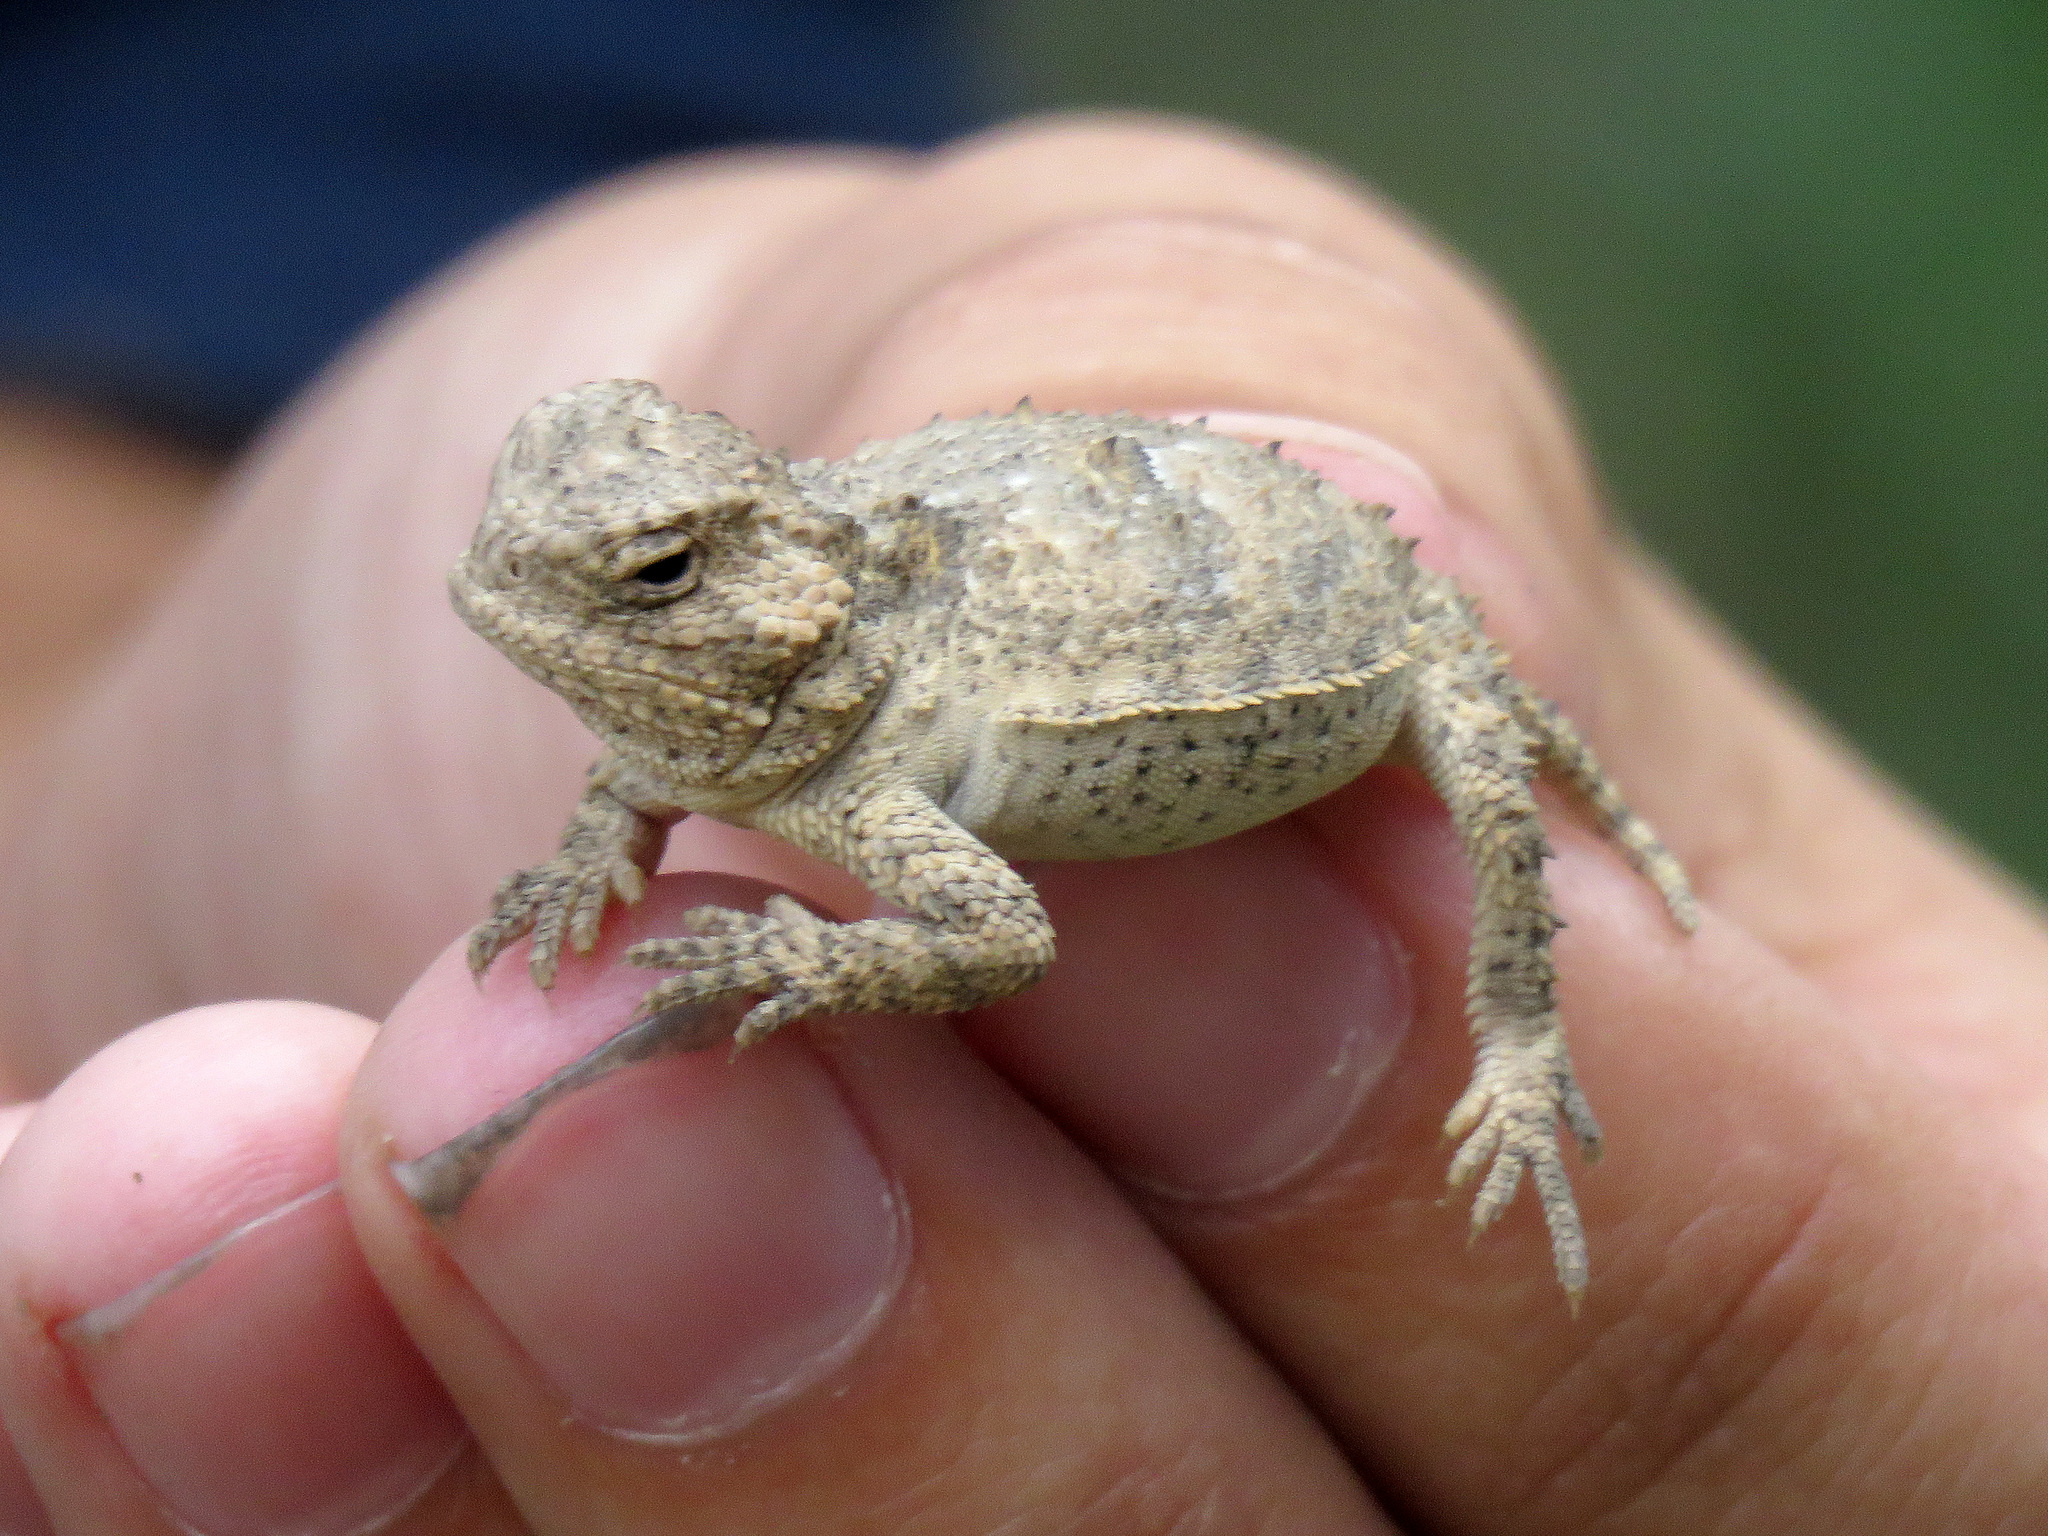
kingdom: Animalia
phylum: Chordata
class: Squamata
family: Phrynosomatidae
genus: Phrynosoma
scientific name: Phrynosoma hernandesi
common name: Greater short-horned lizard
